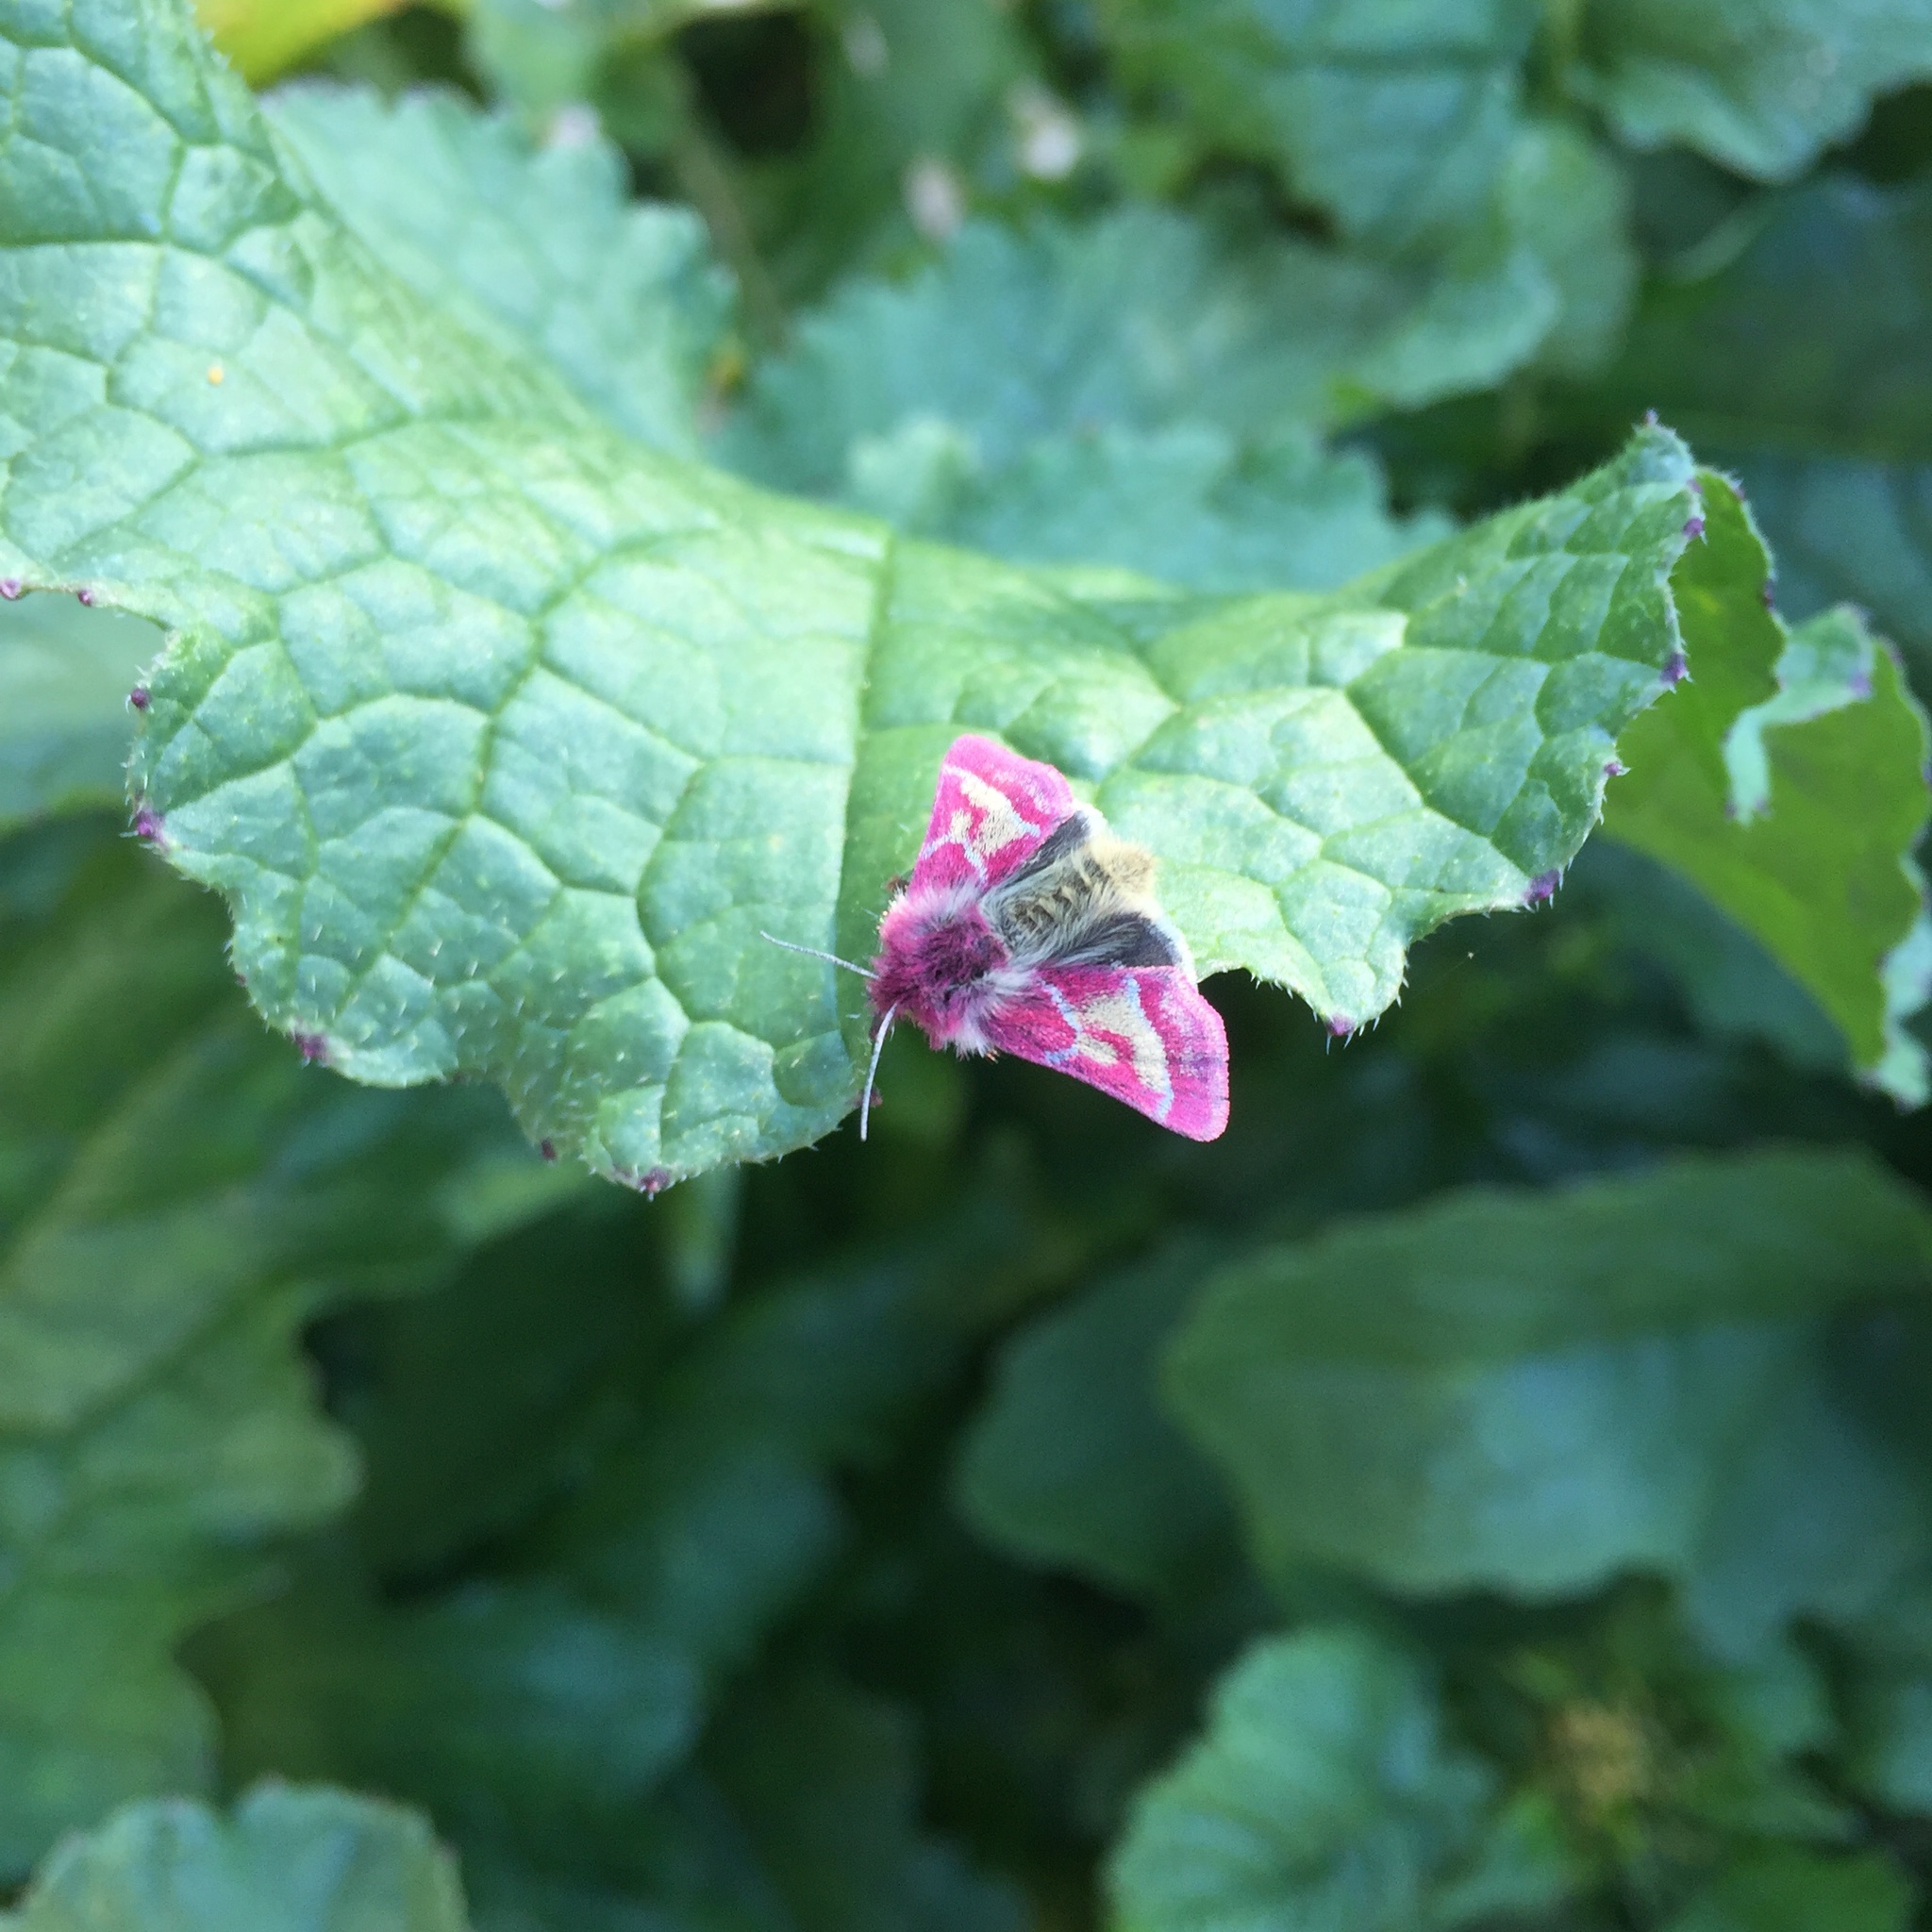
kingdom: Animalia
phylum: Arthropoda
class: Insecta
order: Lepidoptera
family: Noctuidae
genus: Schinia
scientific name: Schinia pulchripennis
